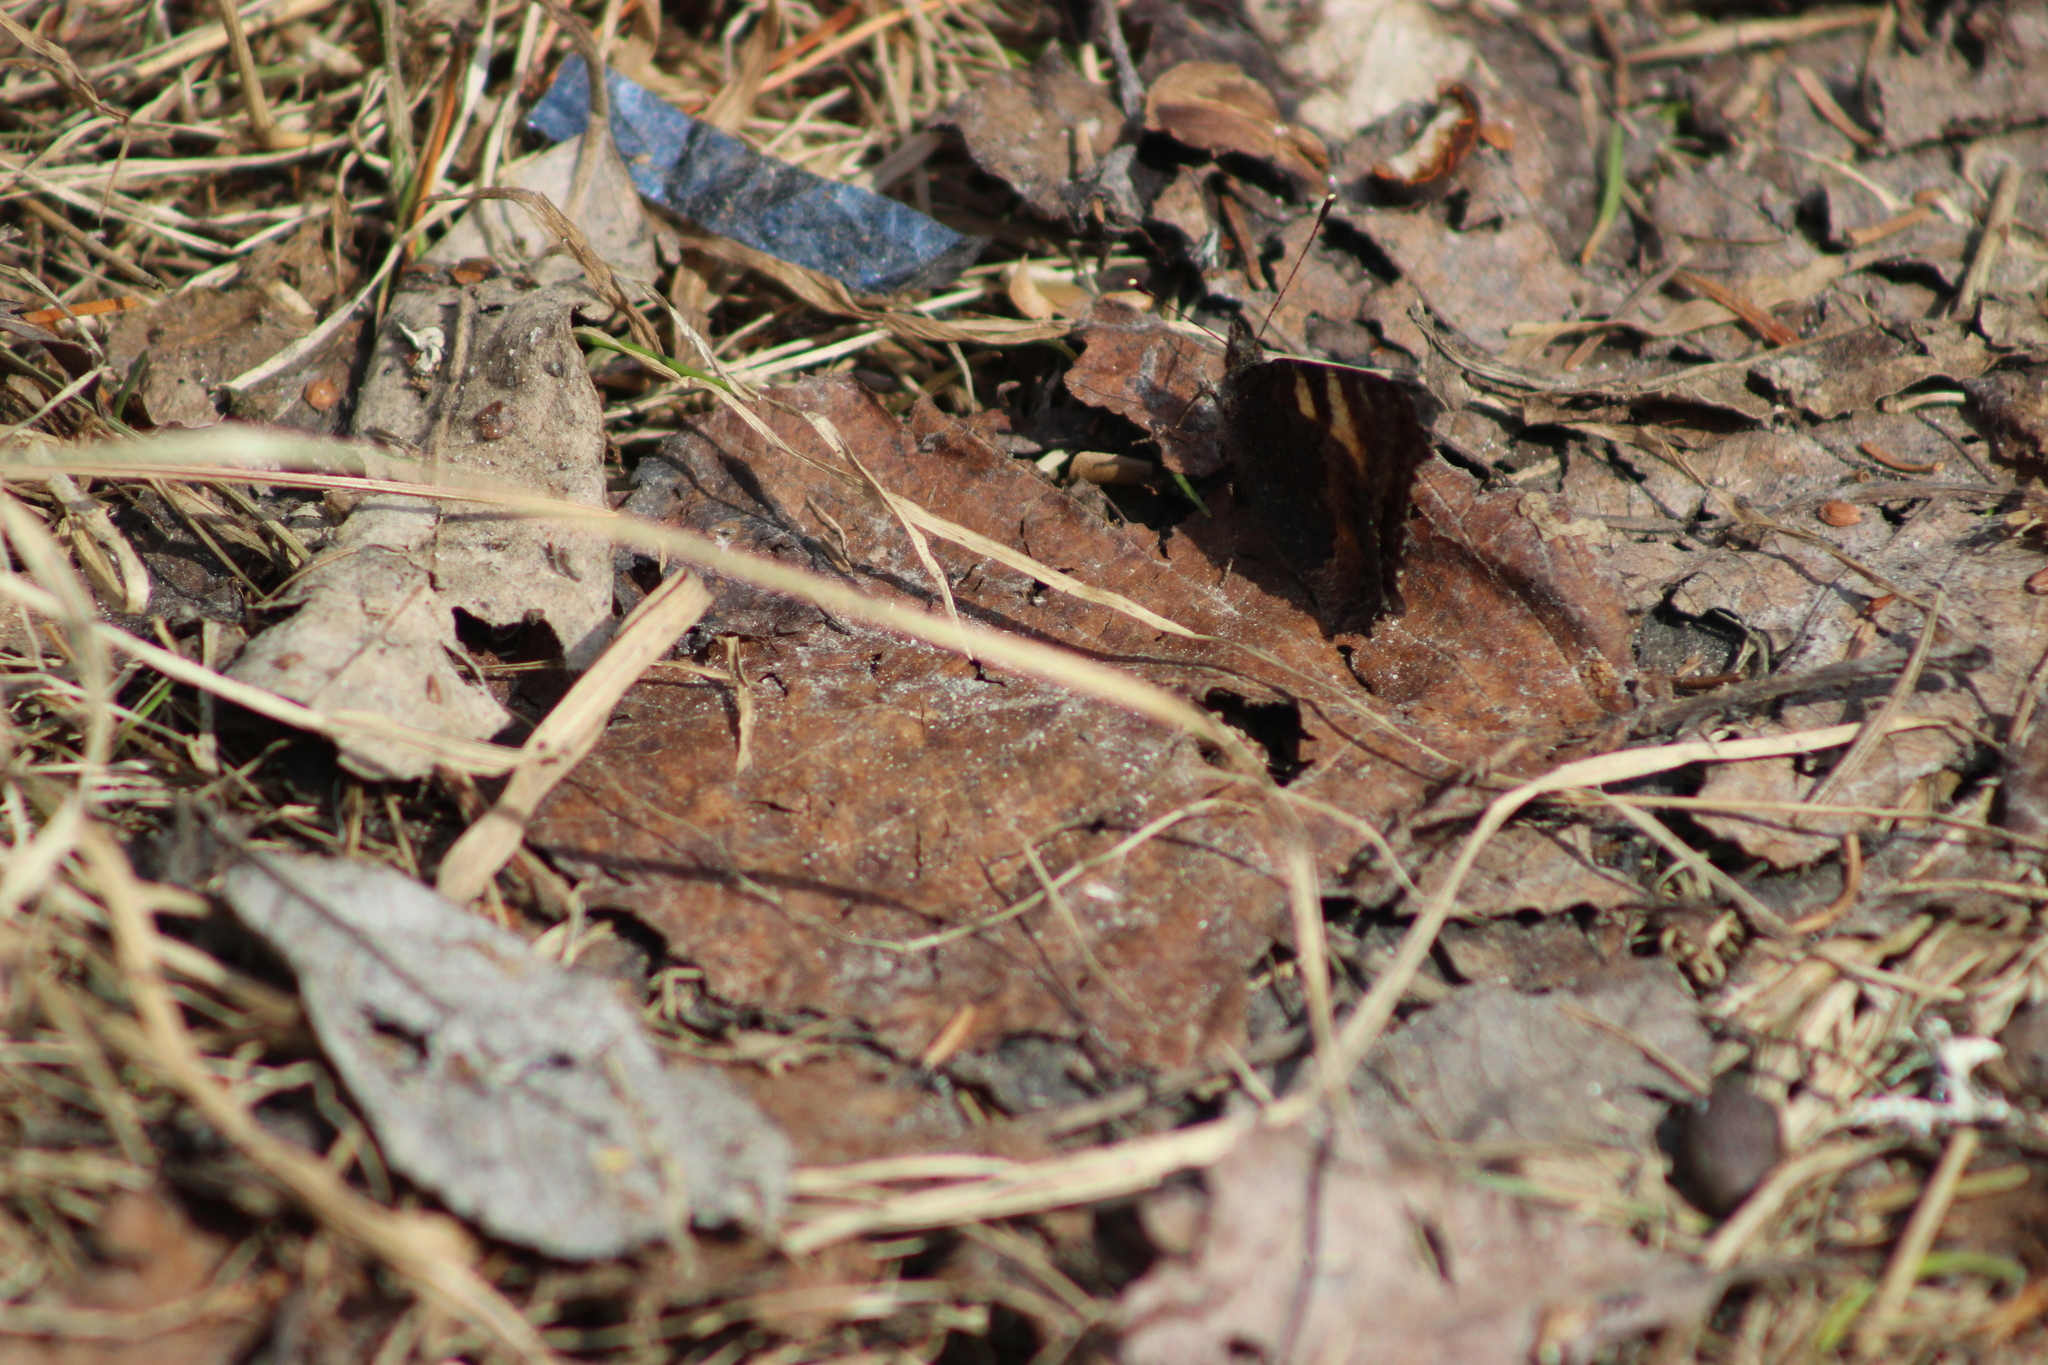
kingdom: Animalia
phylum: Arthropoda
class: Insecta
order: Lepidoptera
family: Nymphalidae
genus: Aglais
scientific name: Aglais urticae
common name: Small tortoiseshell
